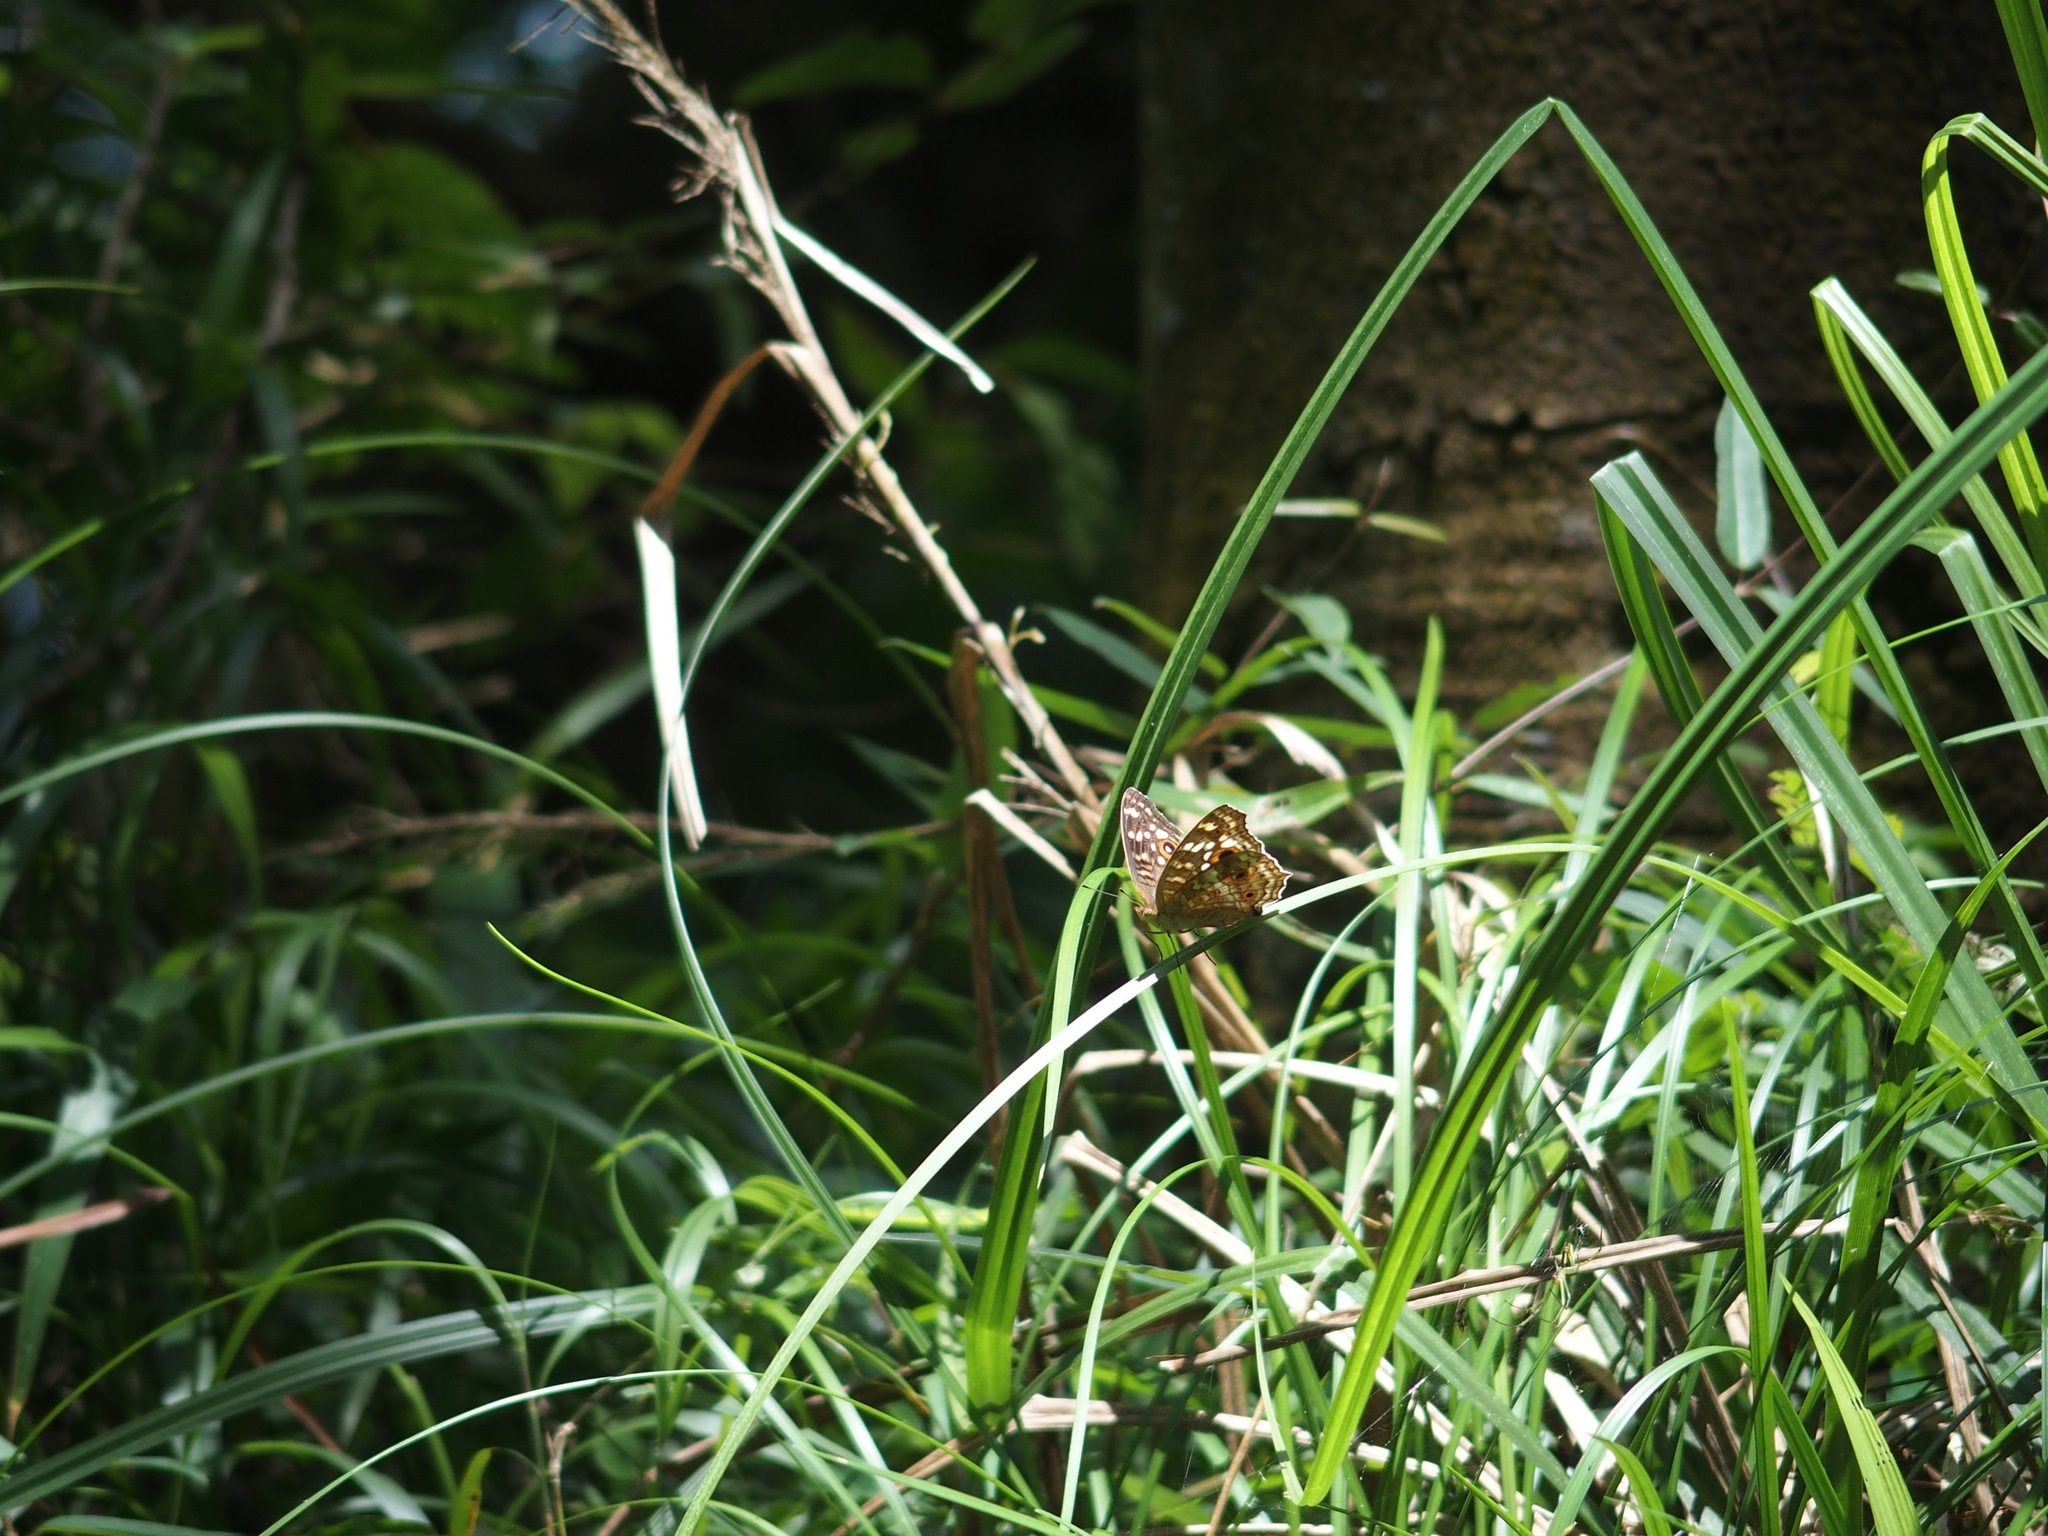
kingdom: Animalia
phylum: Arthropoda
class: Insecta
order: Lepidoptera
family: Nymphalidae
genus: Junonia
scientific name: Junonia lemonias
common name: Lemon pansy
